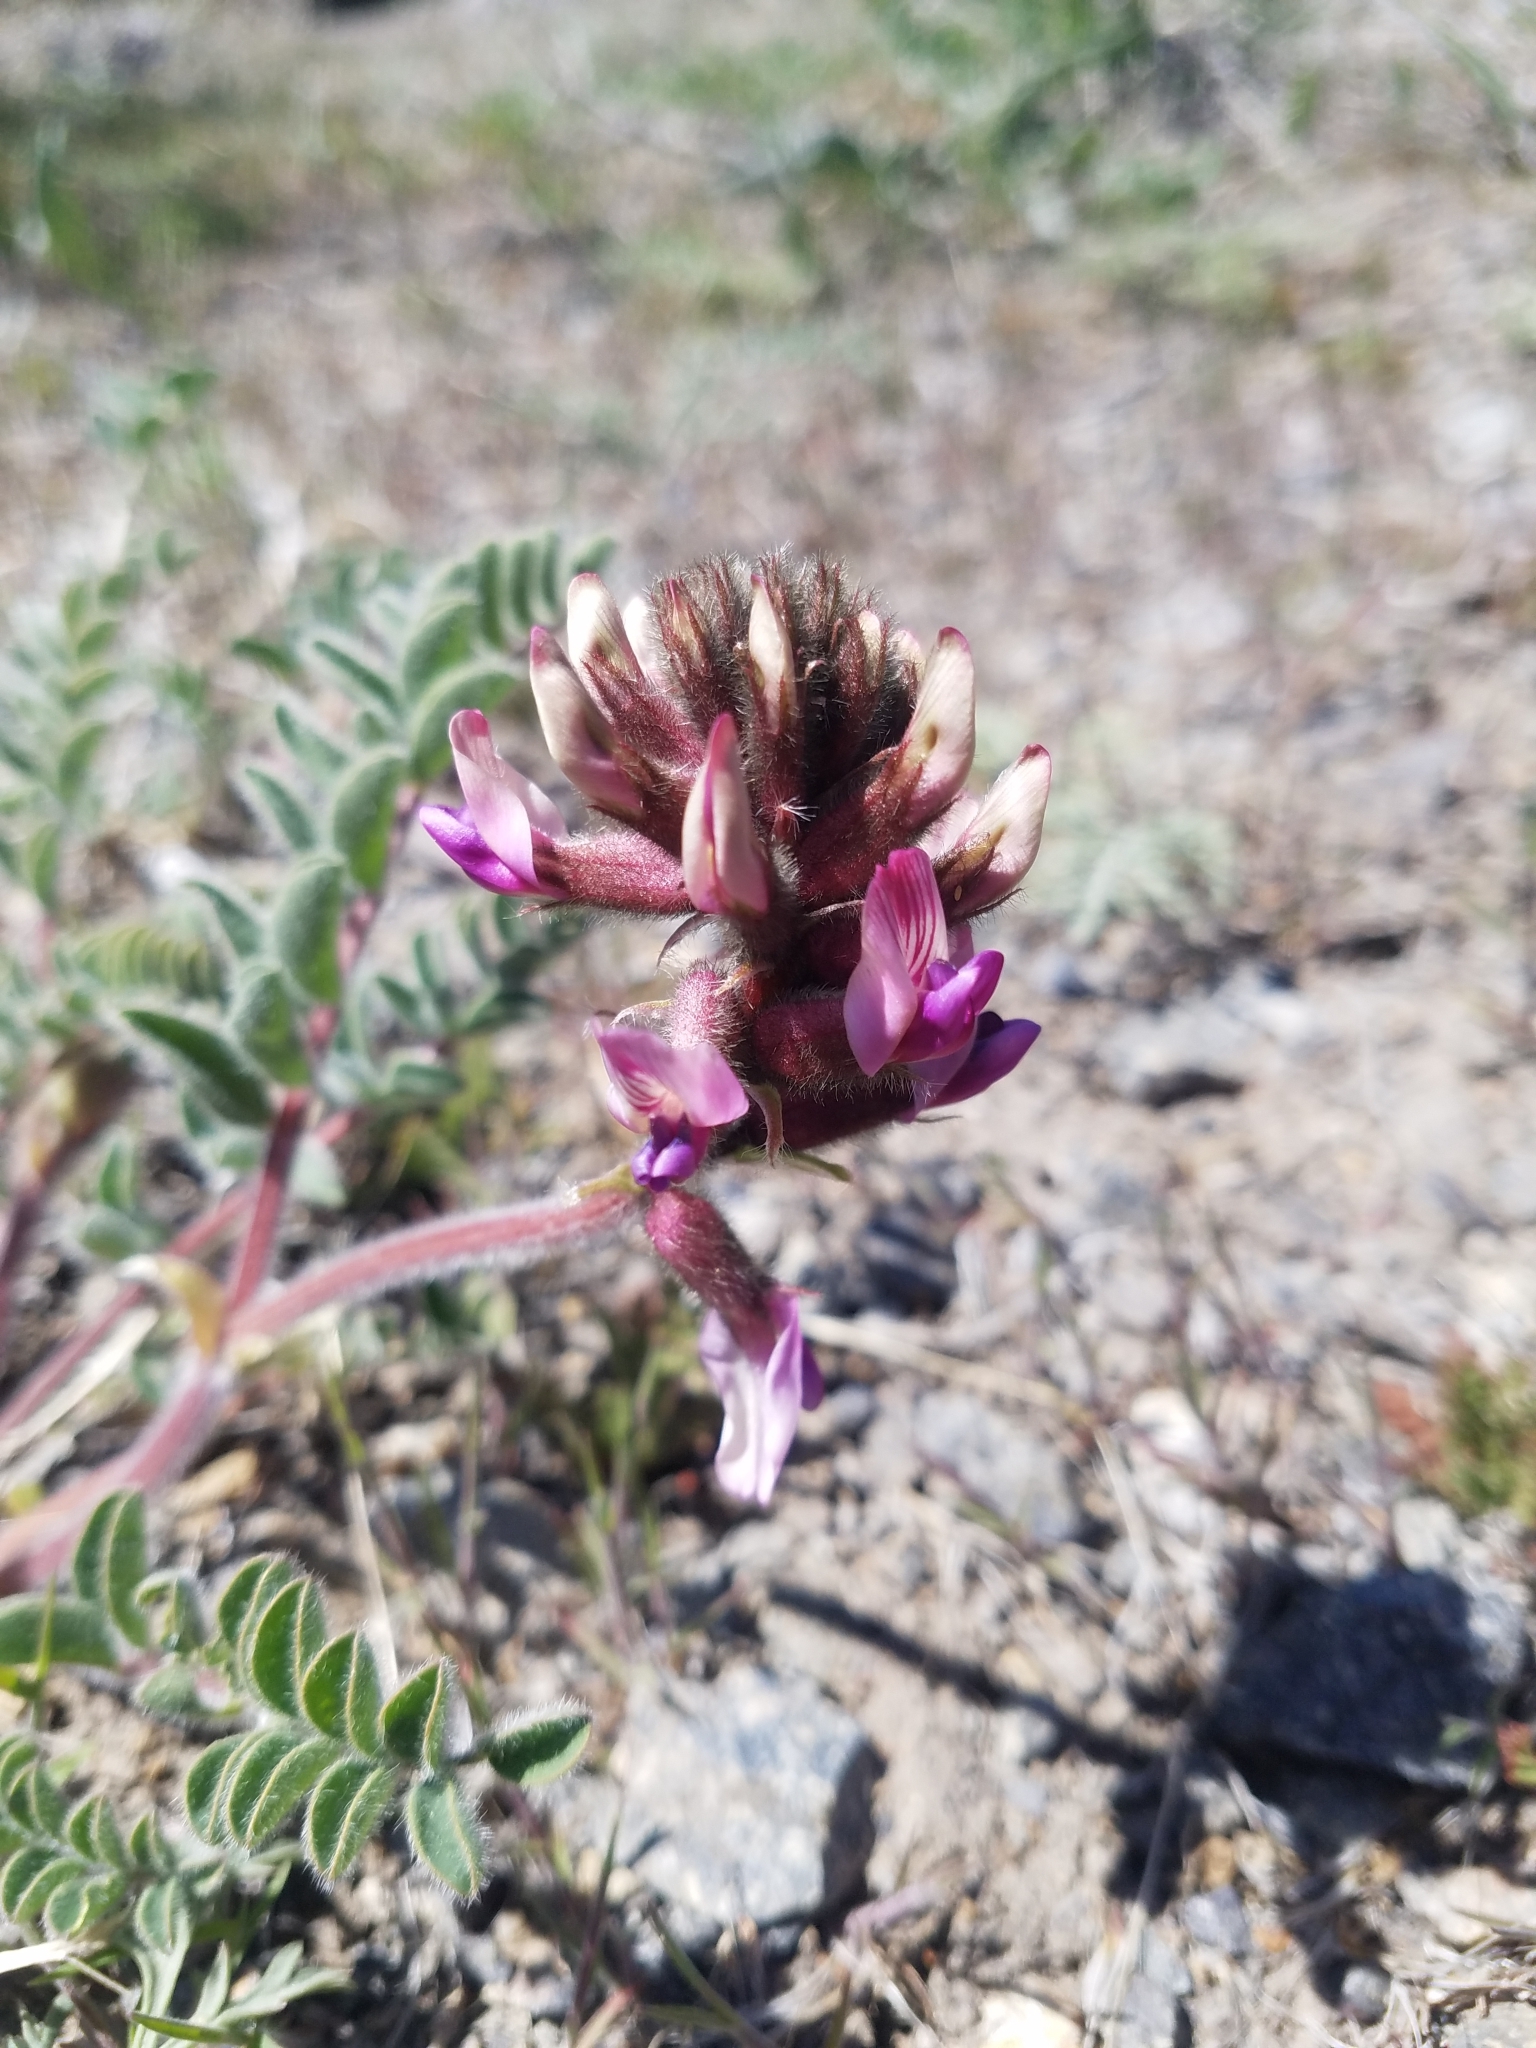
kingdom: Plantae
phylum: Tracheophyta
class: Magnoliopsida
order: Fabales
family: Fabaceae
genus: Astragalus
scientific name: Astragalus malacus
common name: Shaggy milk-vetch
